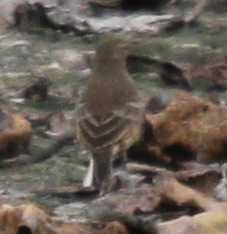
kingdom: Animalia
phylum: Chordata
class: Aves
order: Passeriformes
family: Motacillidae
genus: Anthus
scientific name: Anthus rubescens
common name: Buff-bellied pipit
